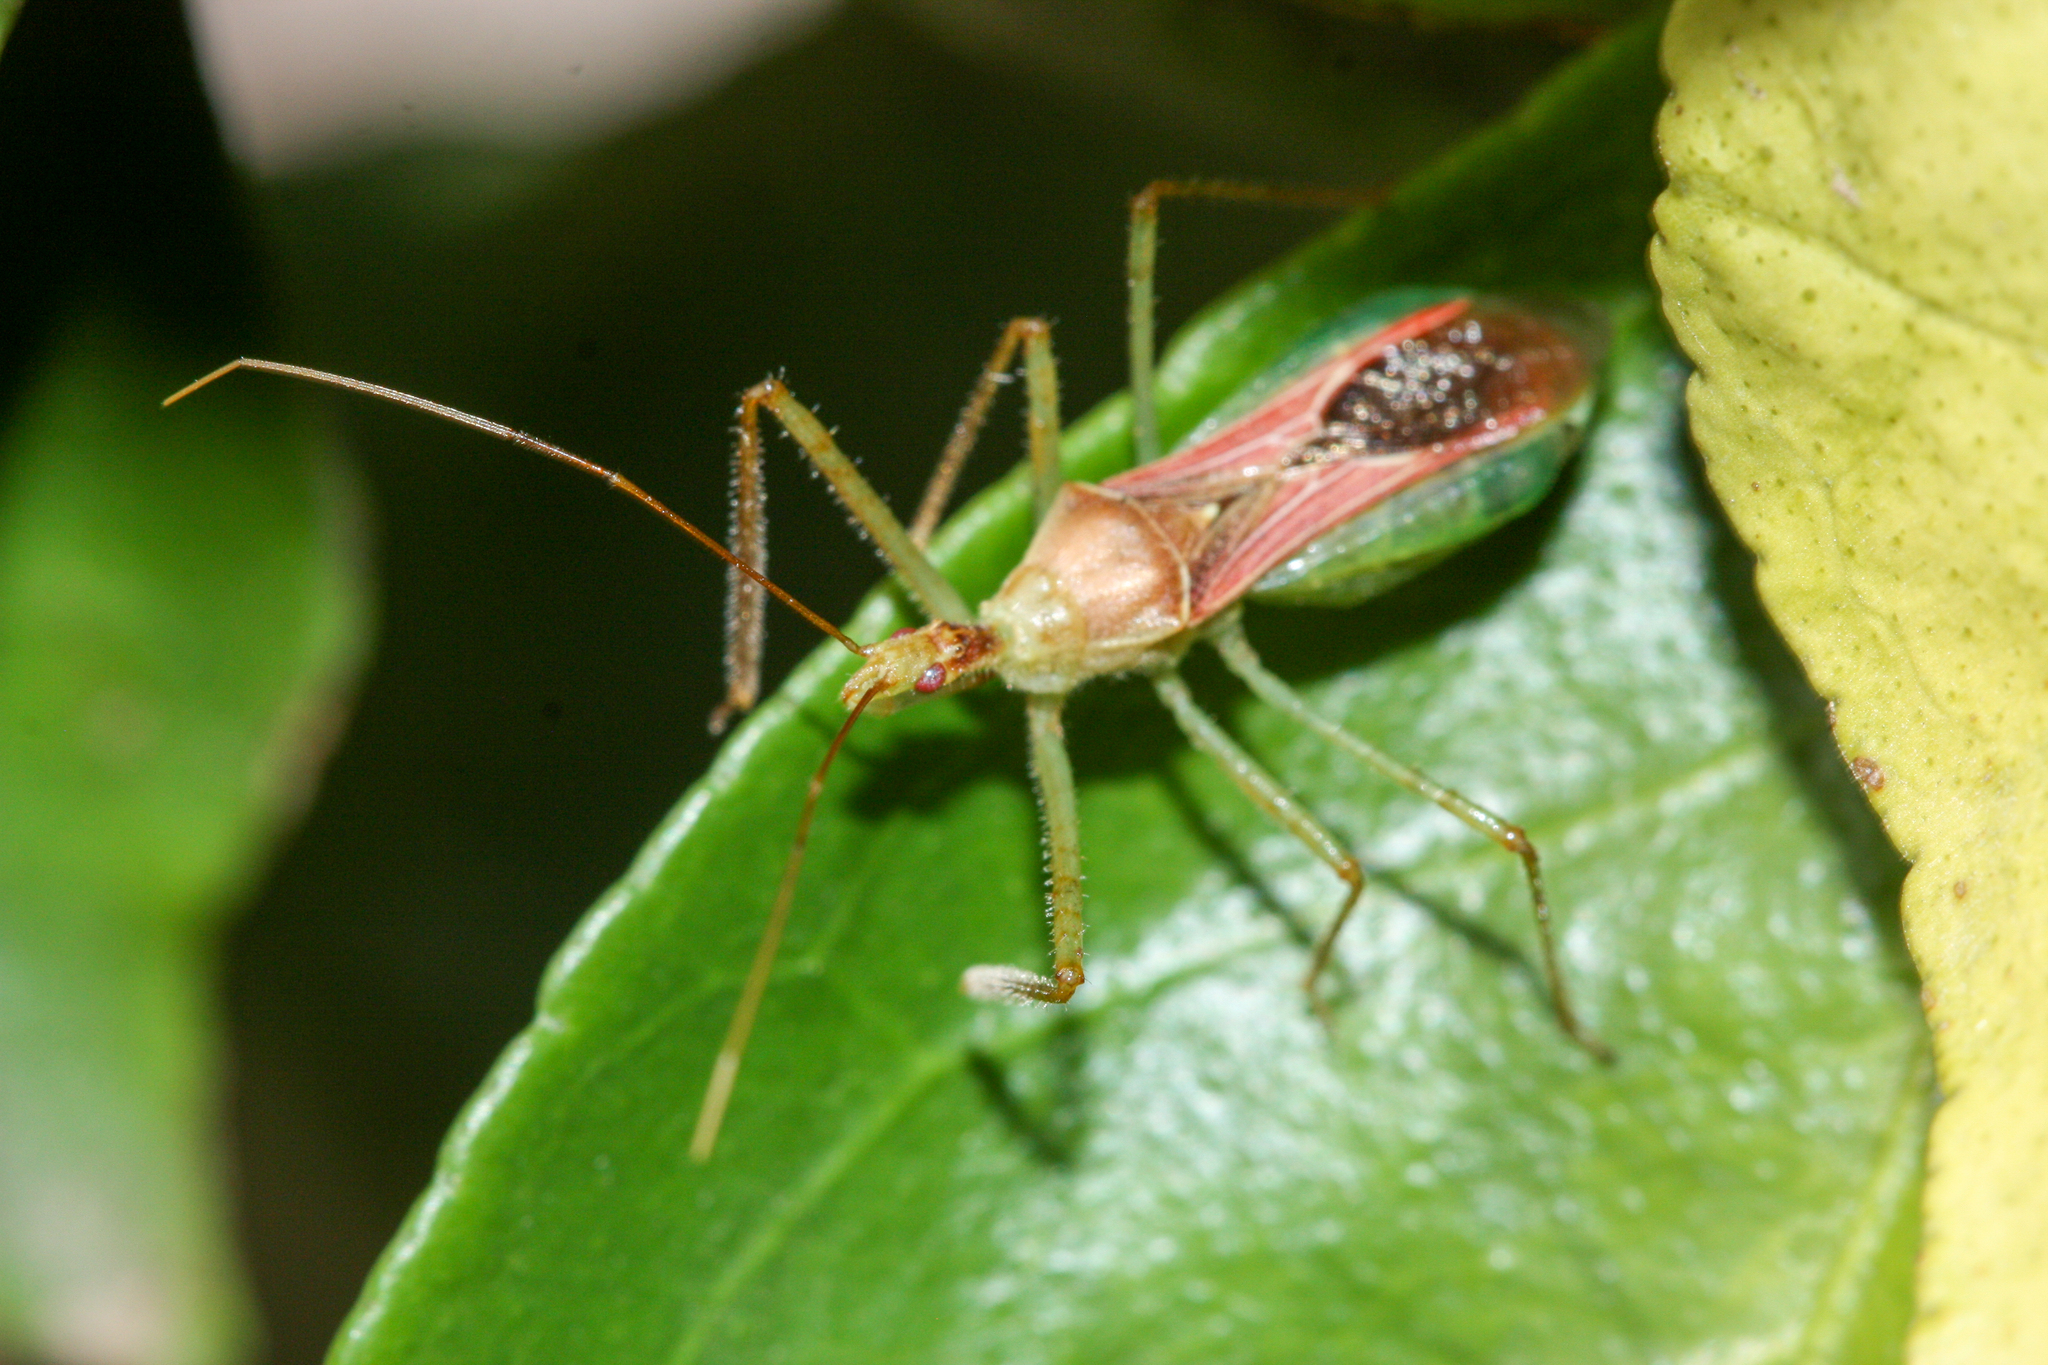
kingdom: Animalia
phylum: Arthropoda
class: Insecta
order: Hemiptera
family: Reduviidae
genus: Zelus
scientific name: Zelus renardii
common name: Assassin bug
